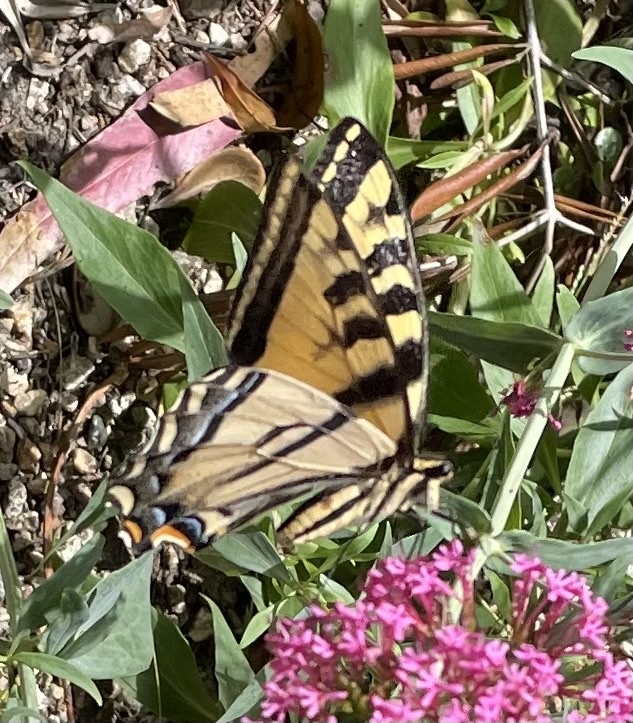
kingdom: Animalia
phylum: Arthropoda
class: Insecta
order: Lepidoptera
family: Papilionidae
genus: Papilio
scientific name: Papilio rutulus
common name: Western tiger swallowtail
